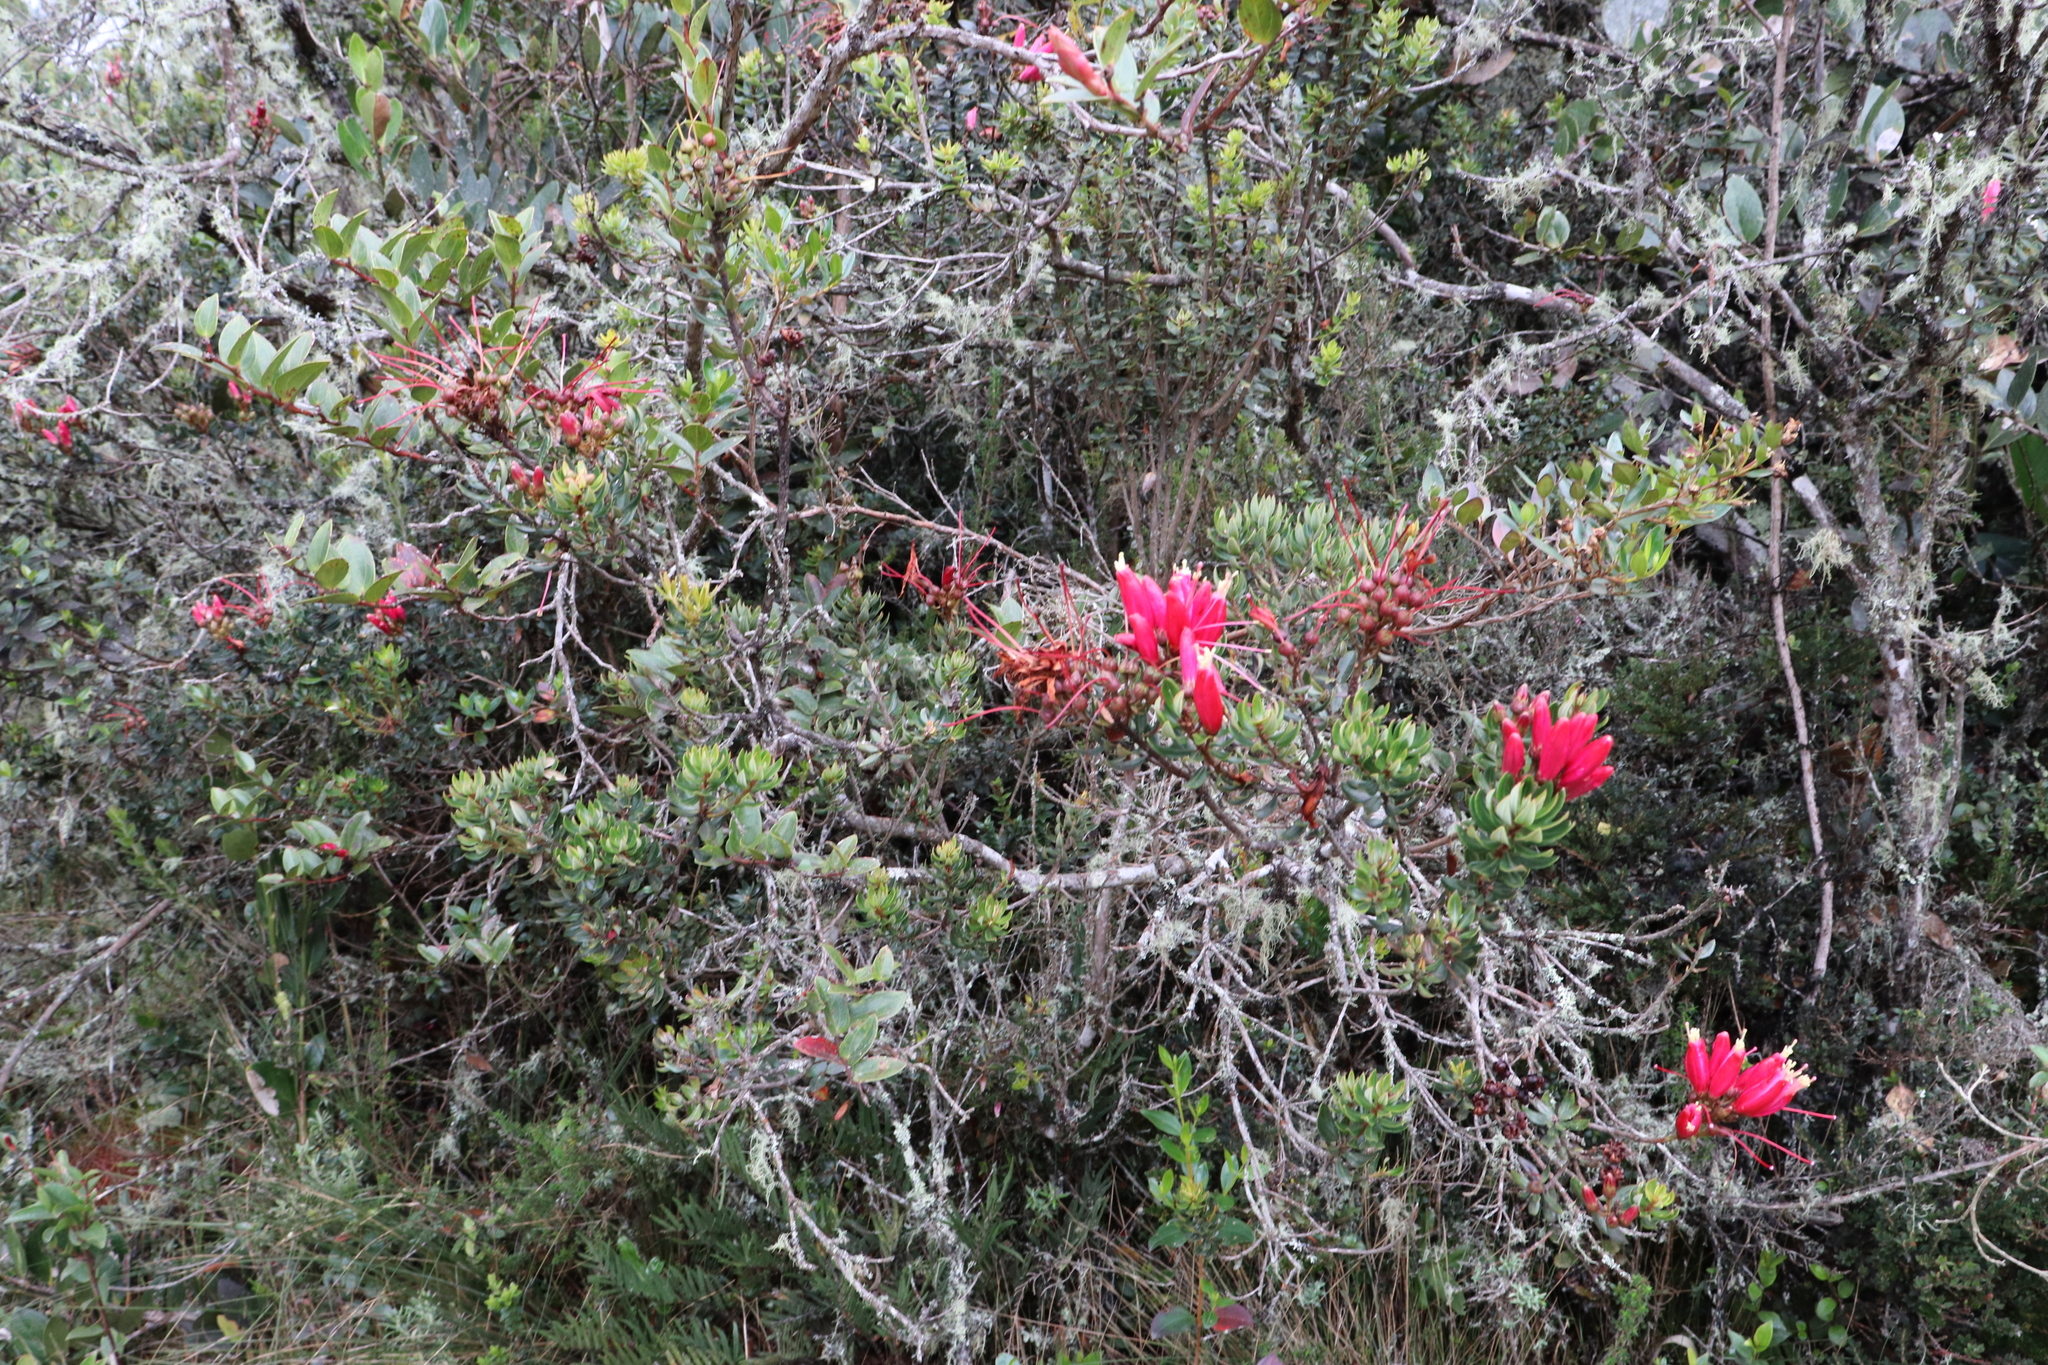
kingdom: Plantae
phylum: Tracheophyta
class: Magnoliopsida
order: Ericales
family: Ericaceae
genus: Bejaria
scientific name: Bejaria resinosa
